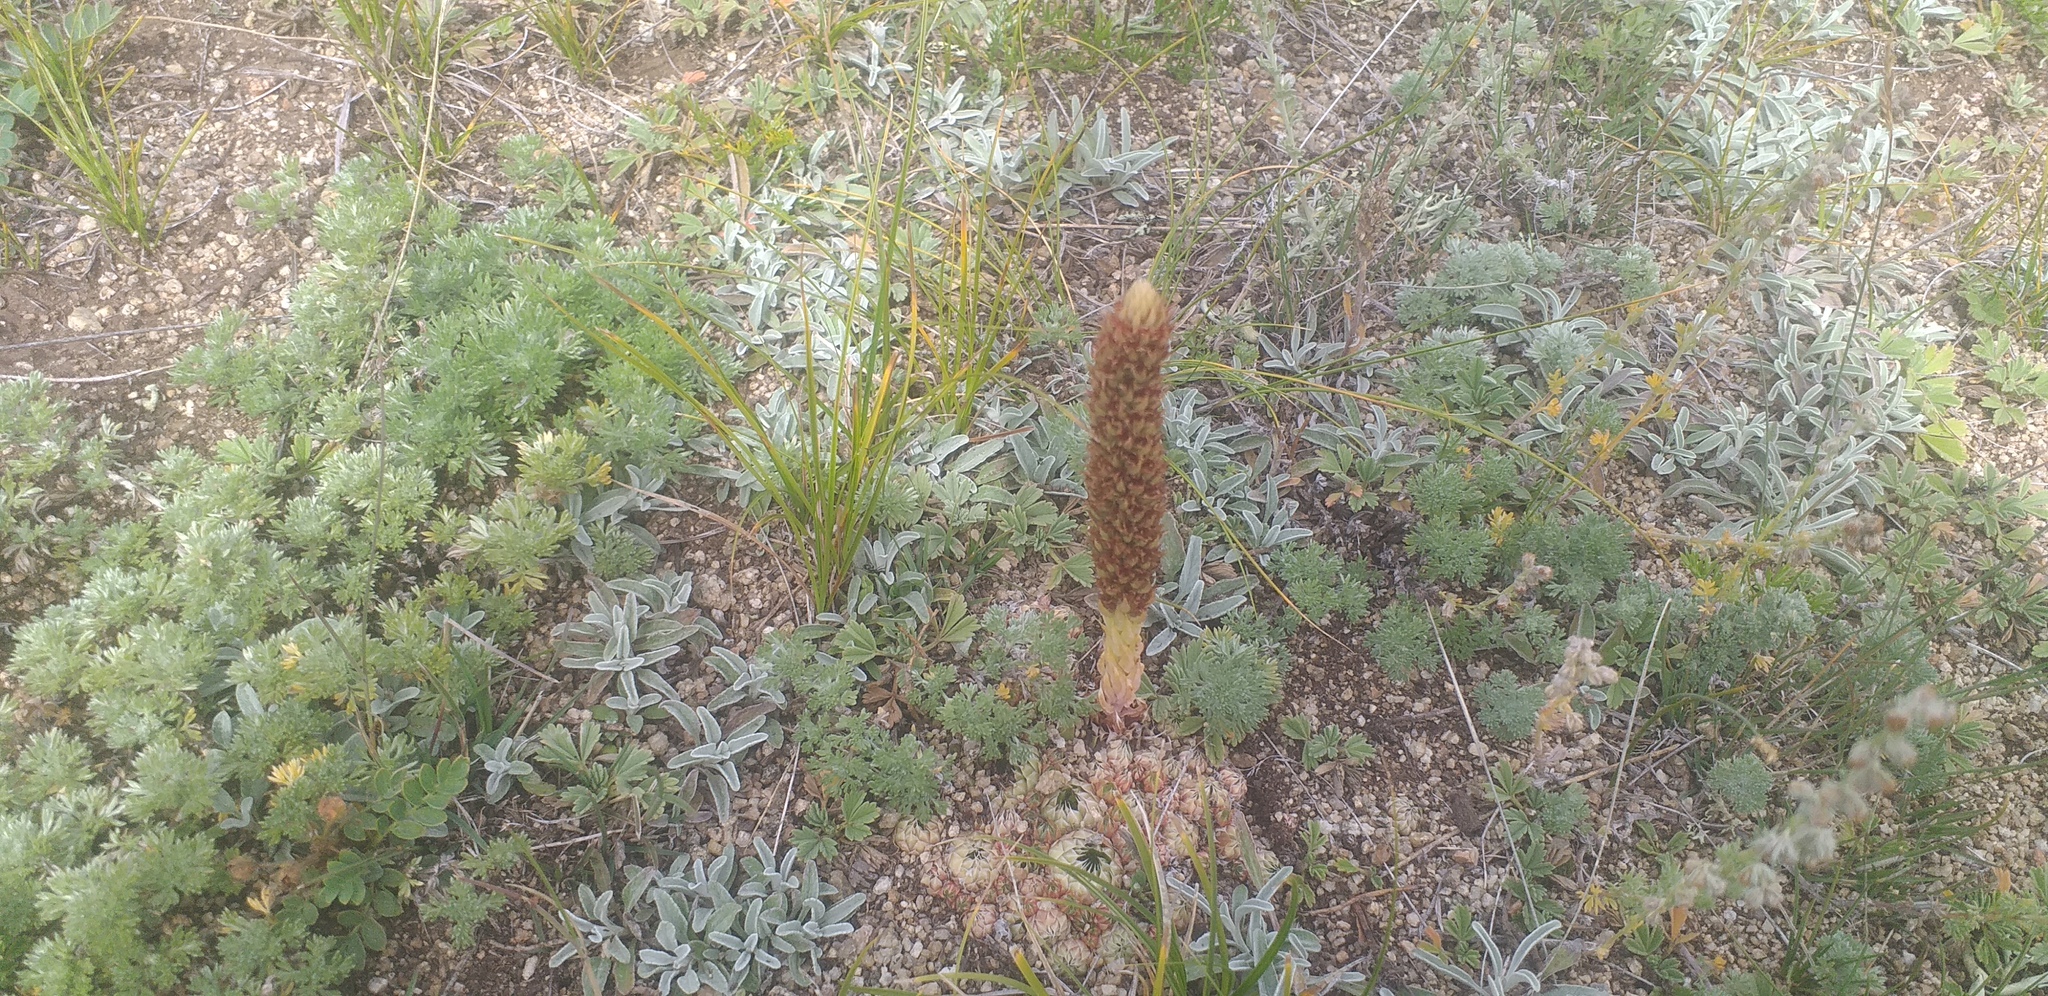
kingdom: Plantae
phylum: Tracheophyta
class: Magnoliopsida
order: Saxifragales
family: Crassulaceae
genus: Orostachys
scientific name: Orostachys spinosa
